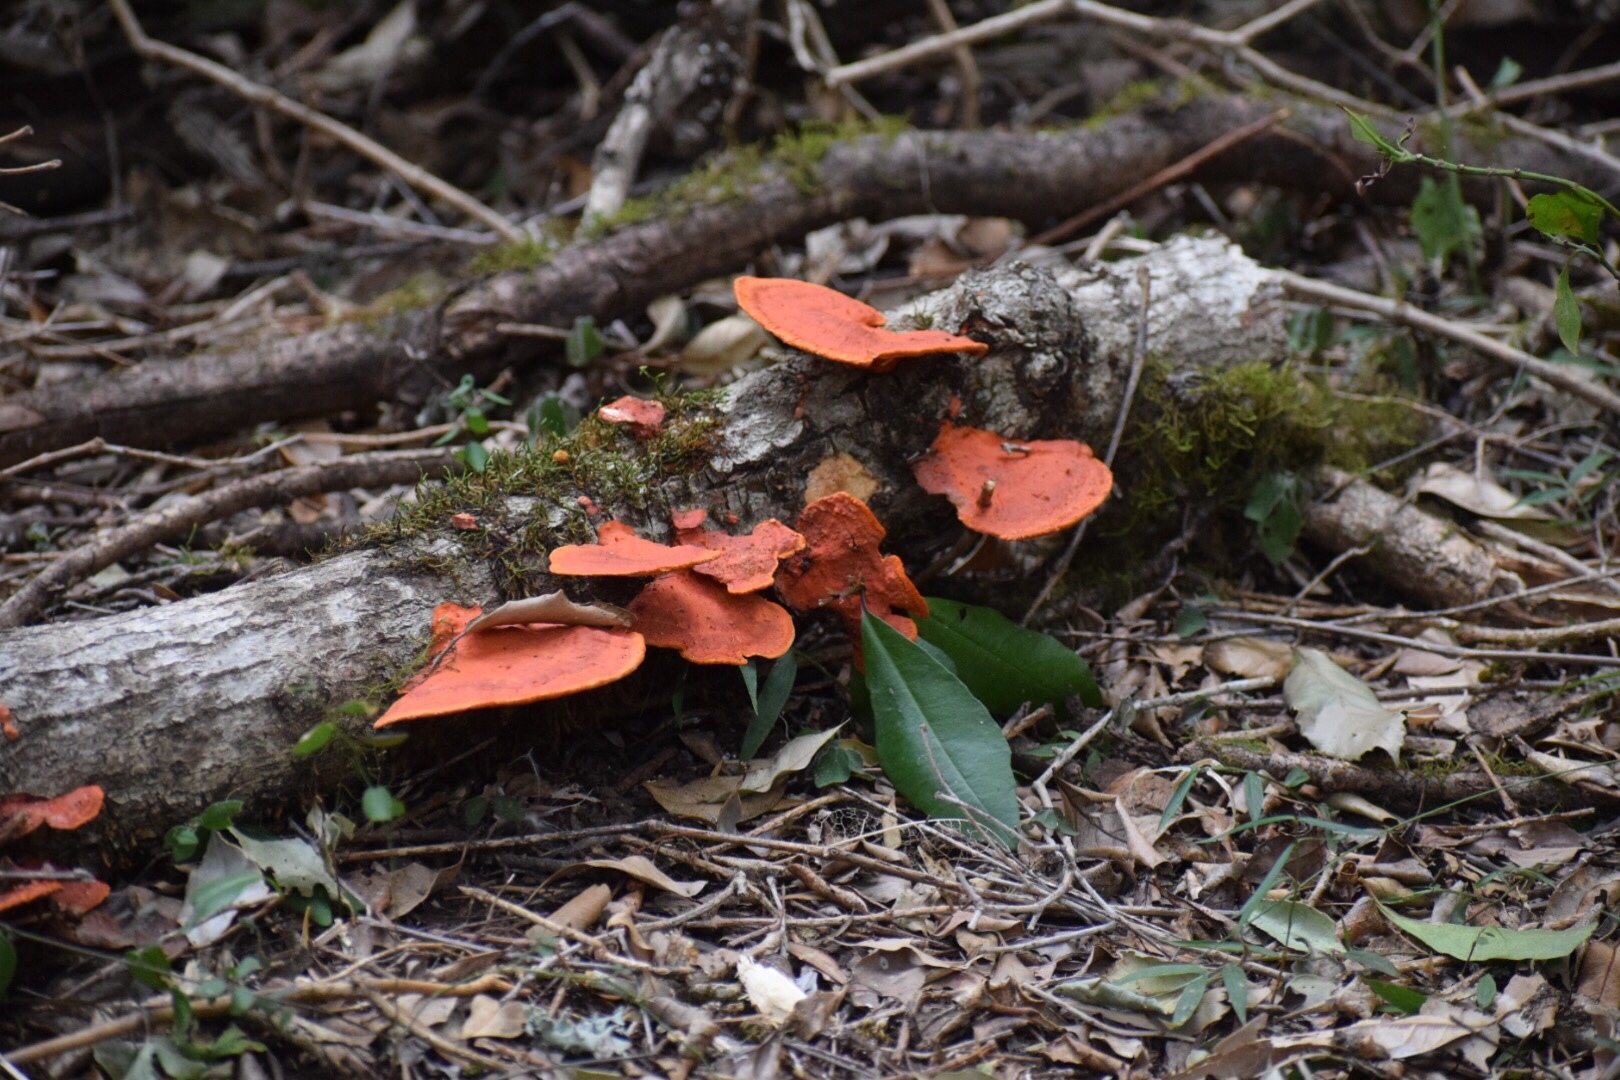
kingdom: Fungi
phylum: Basidiomycota
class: Agaricomycetes
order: Polyporales
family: Polyporaceae
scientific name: Polyporaceae
